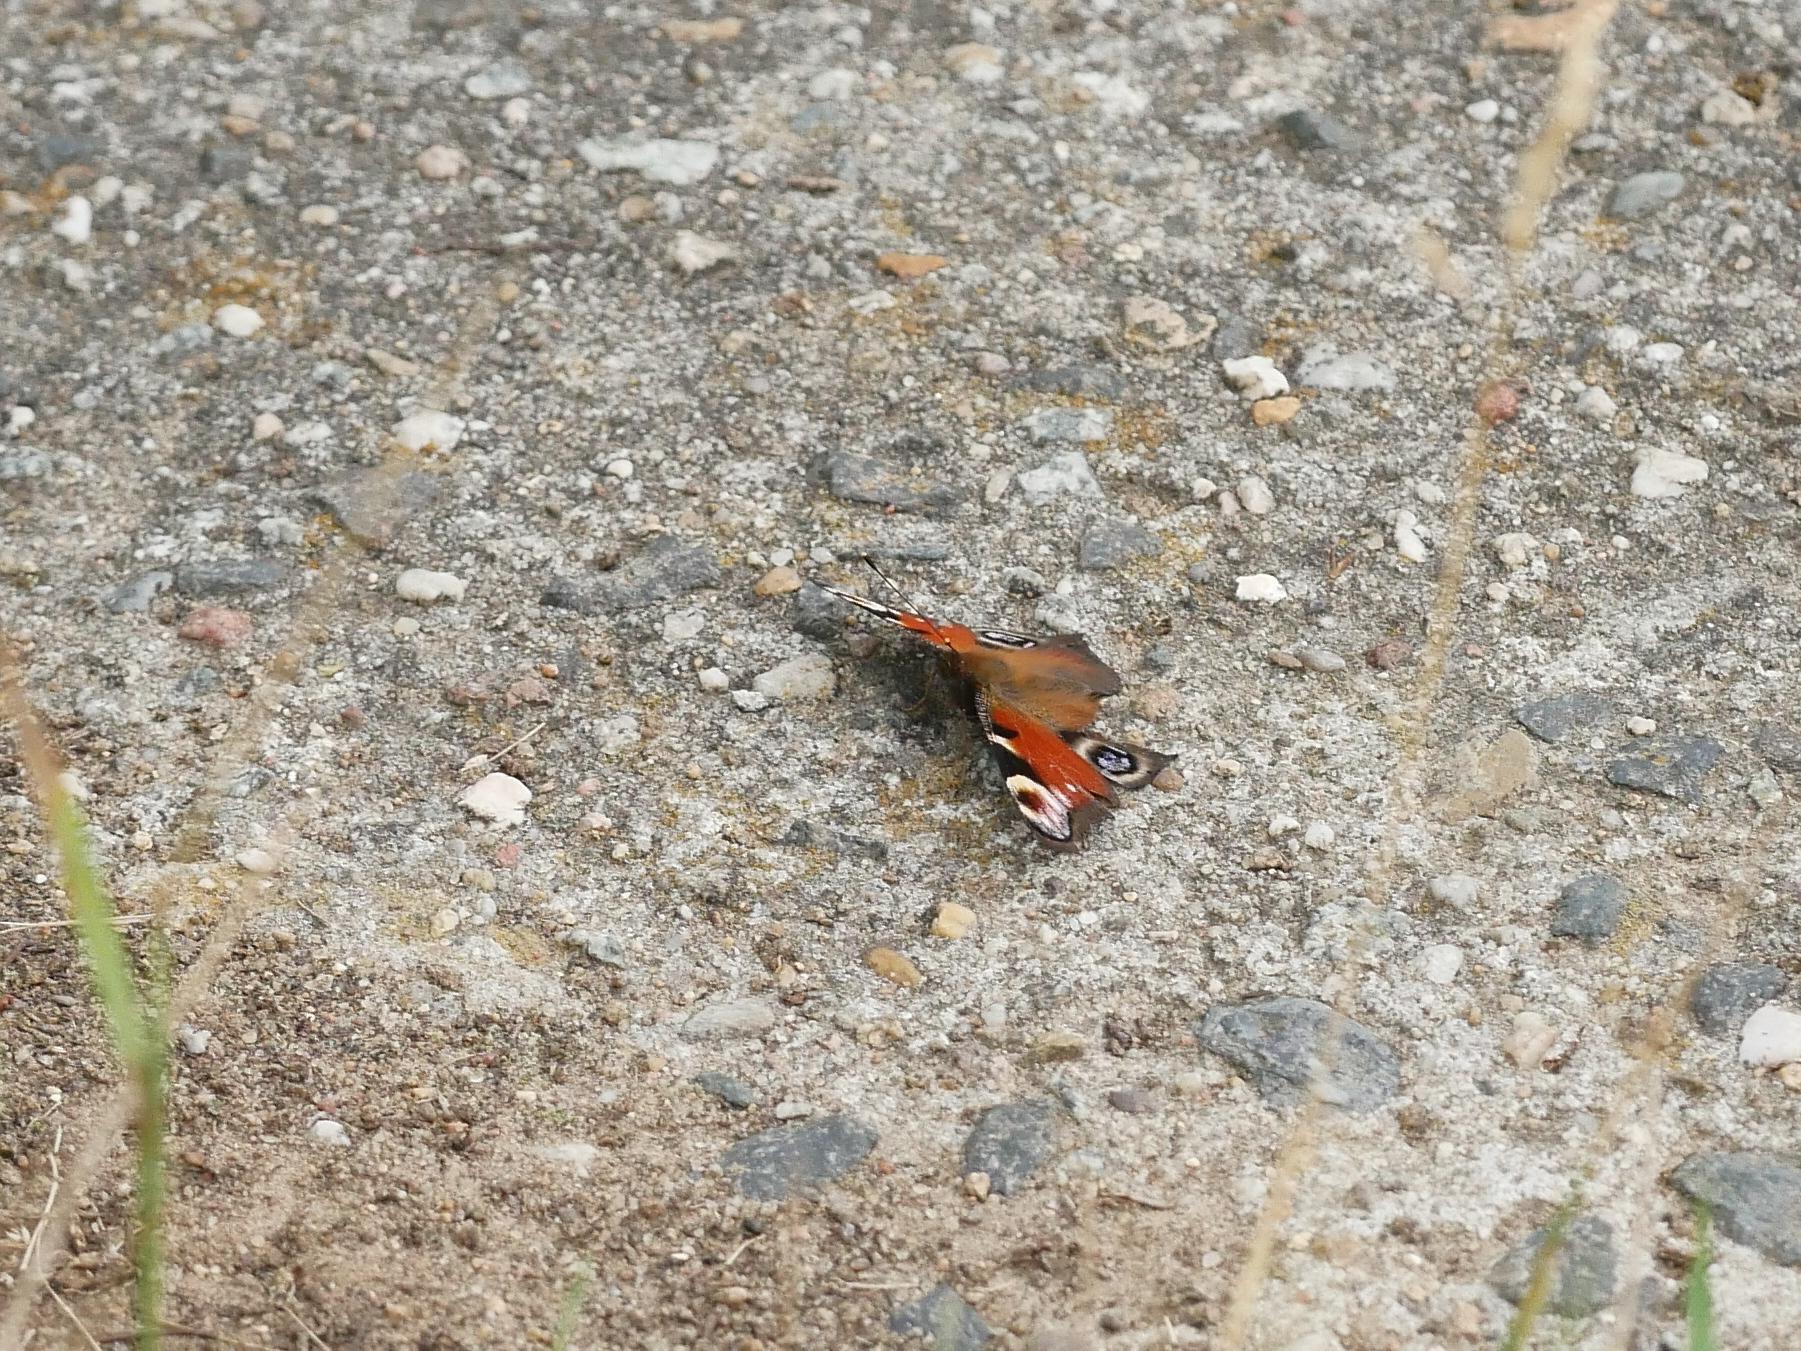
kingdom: Animalia
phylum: Arthropoda
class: Insecta
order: Lepidoptera
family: Nymphalidae
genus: Aglais
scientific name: Aglais io
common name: Peacock
